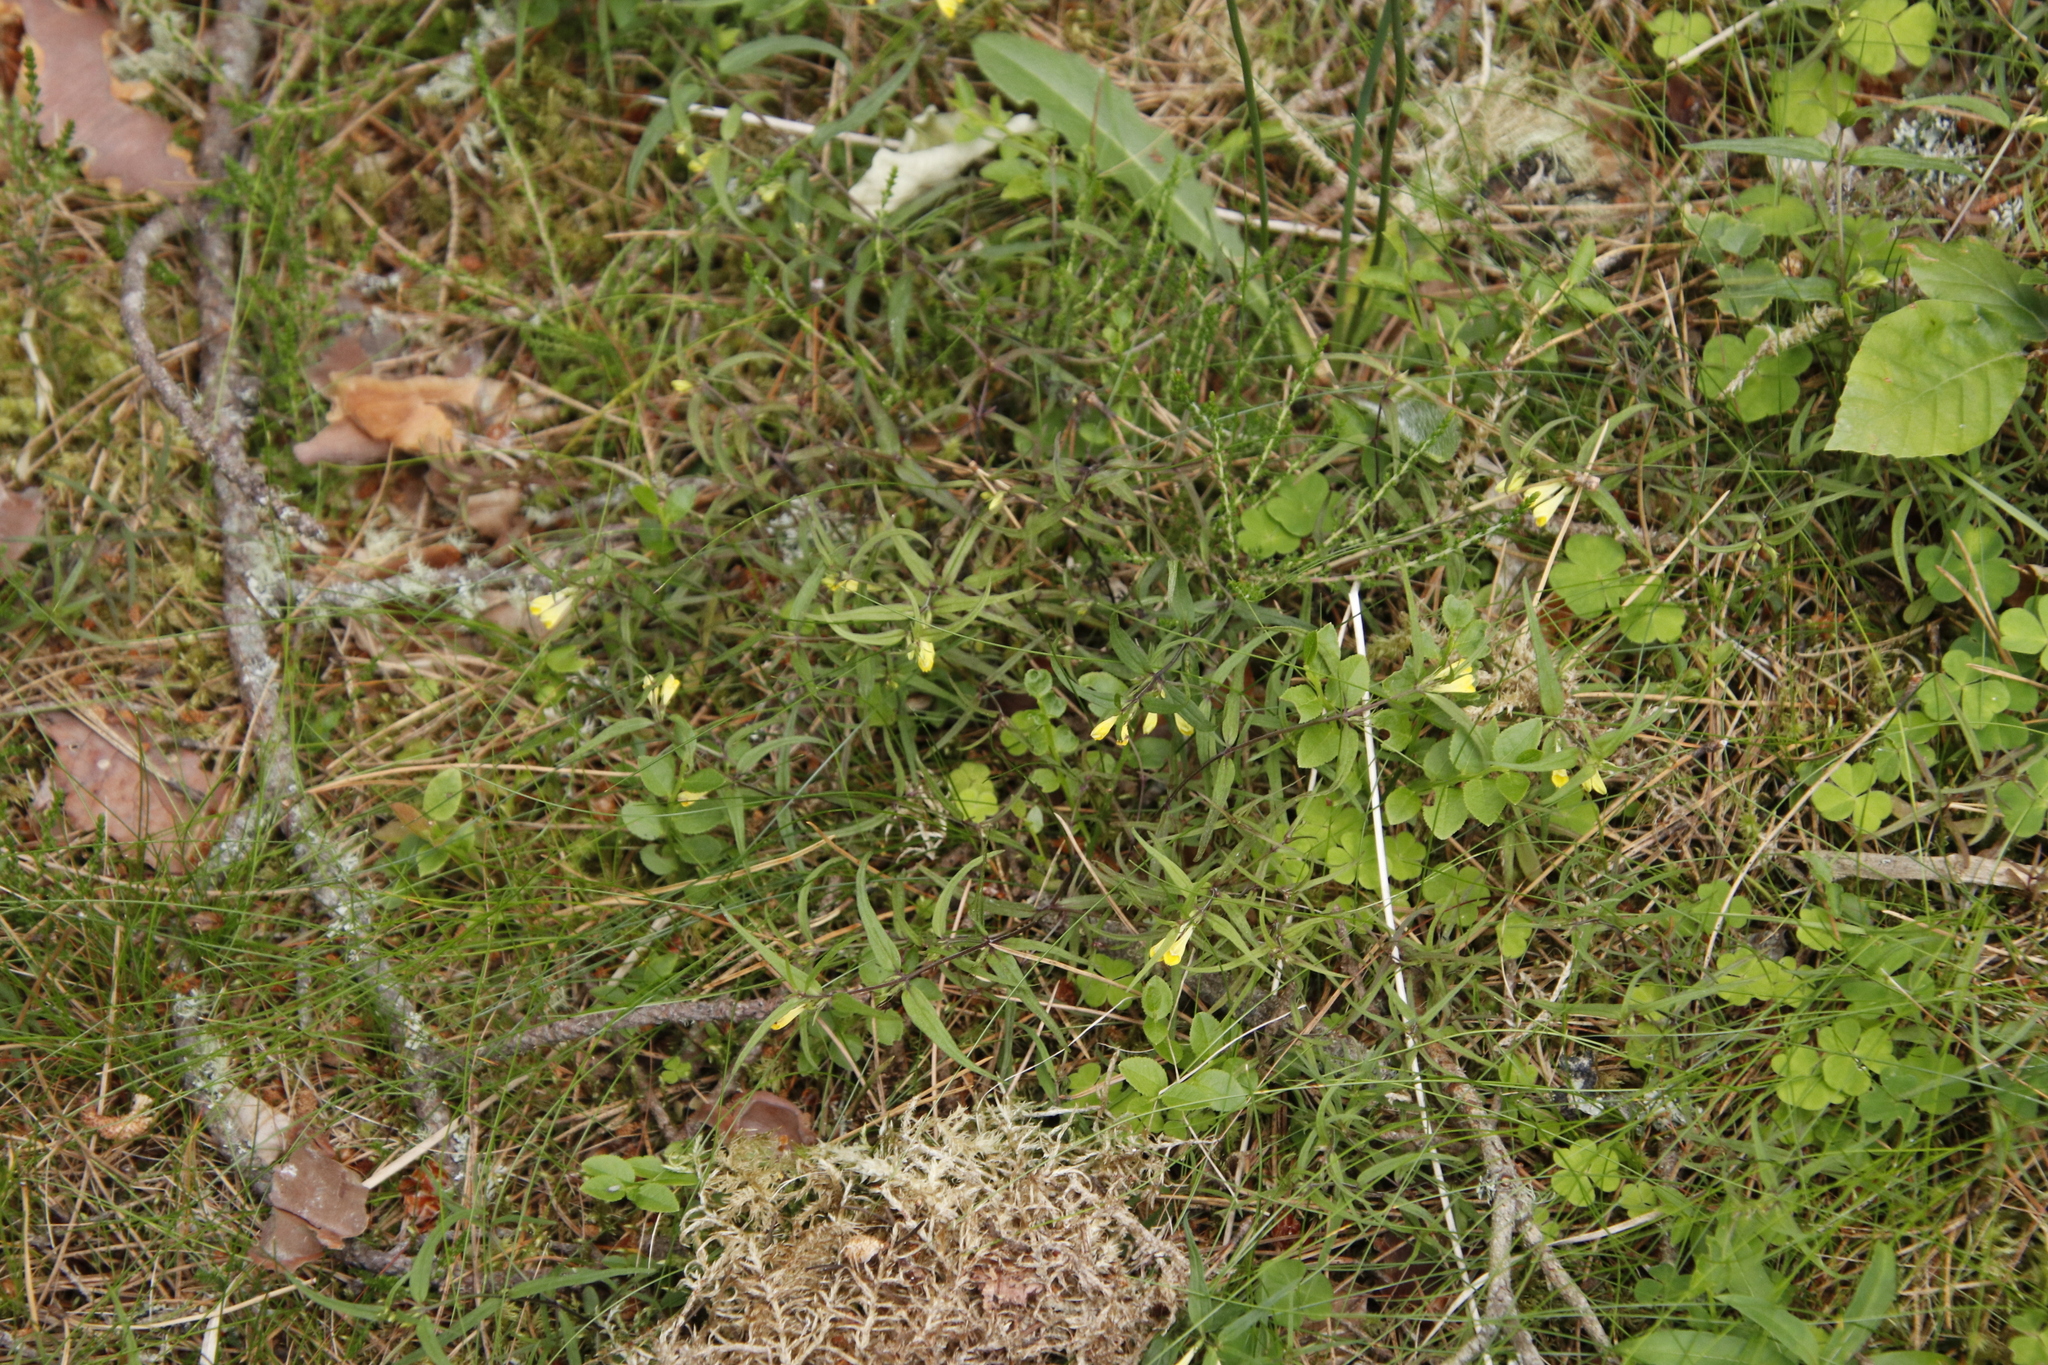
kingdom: Plantae
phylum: Tracheophyta
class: Magnoliopsida
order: Lamiales
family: Orobanchaceae
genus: Melampyrum
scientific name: Melampyrum pratense
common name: Common cow-wheat
